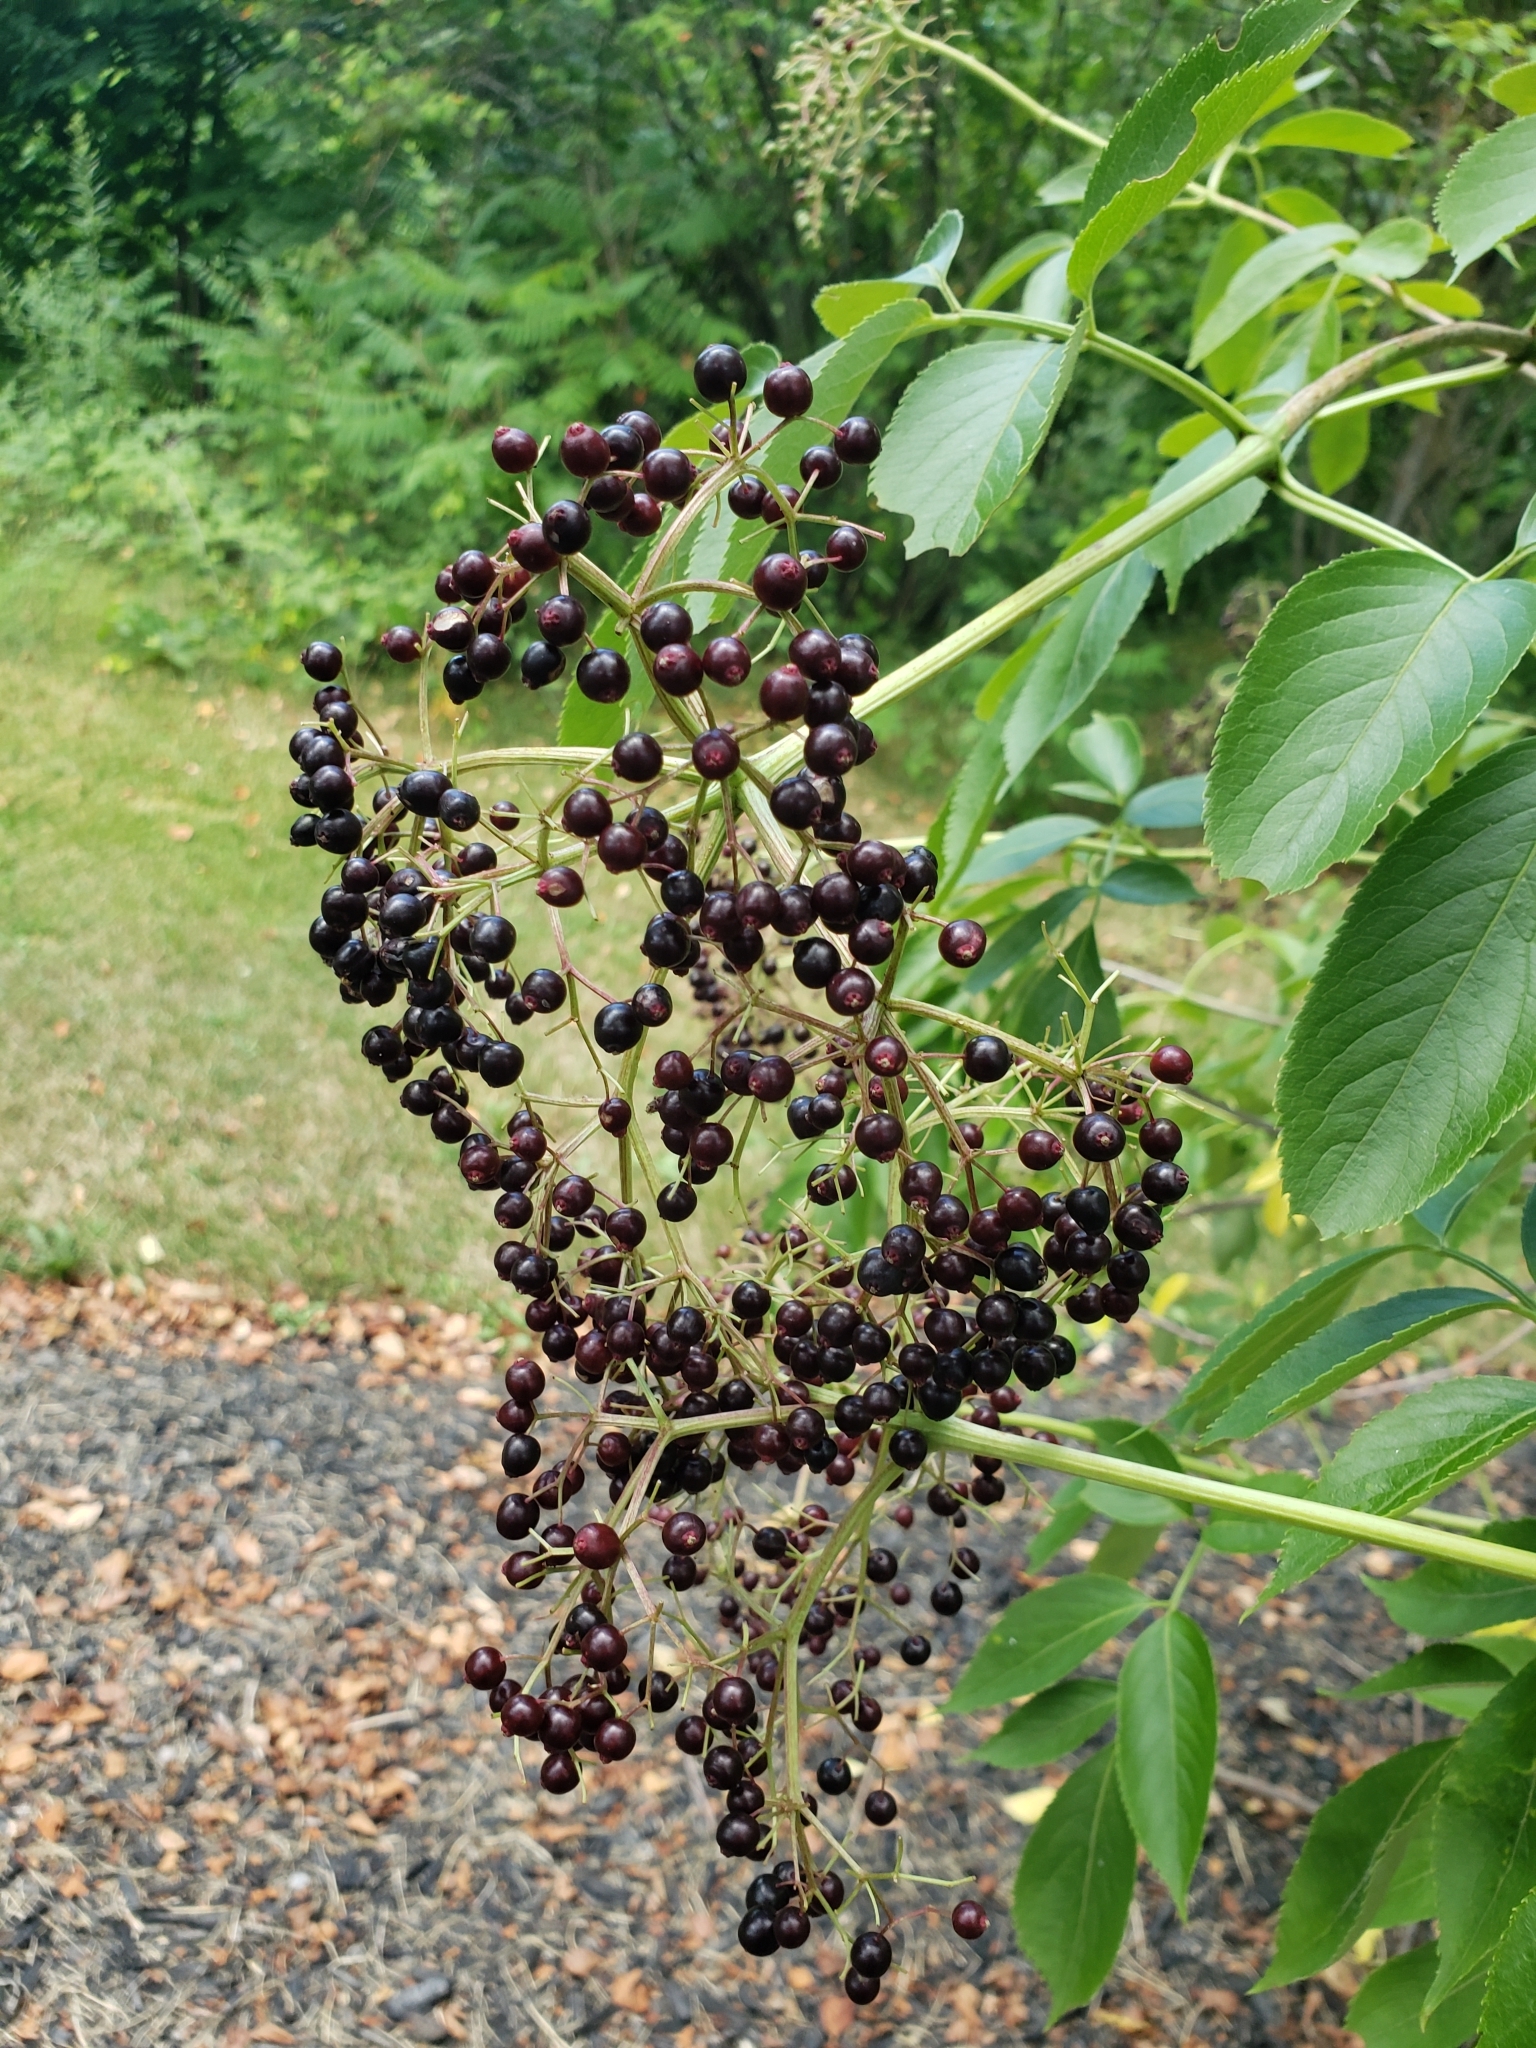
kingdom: Plantae
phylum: Tracheophyta
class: Magnoliopsida
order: Dipsacales
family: Viburnaceae
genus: Sambucus
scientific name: Sambucus canadensis
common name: American elder
